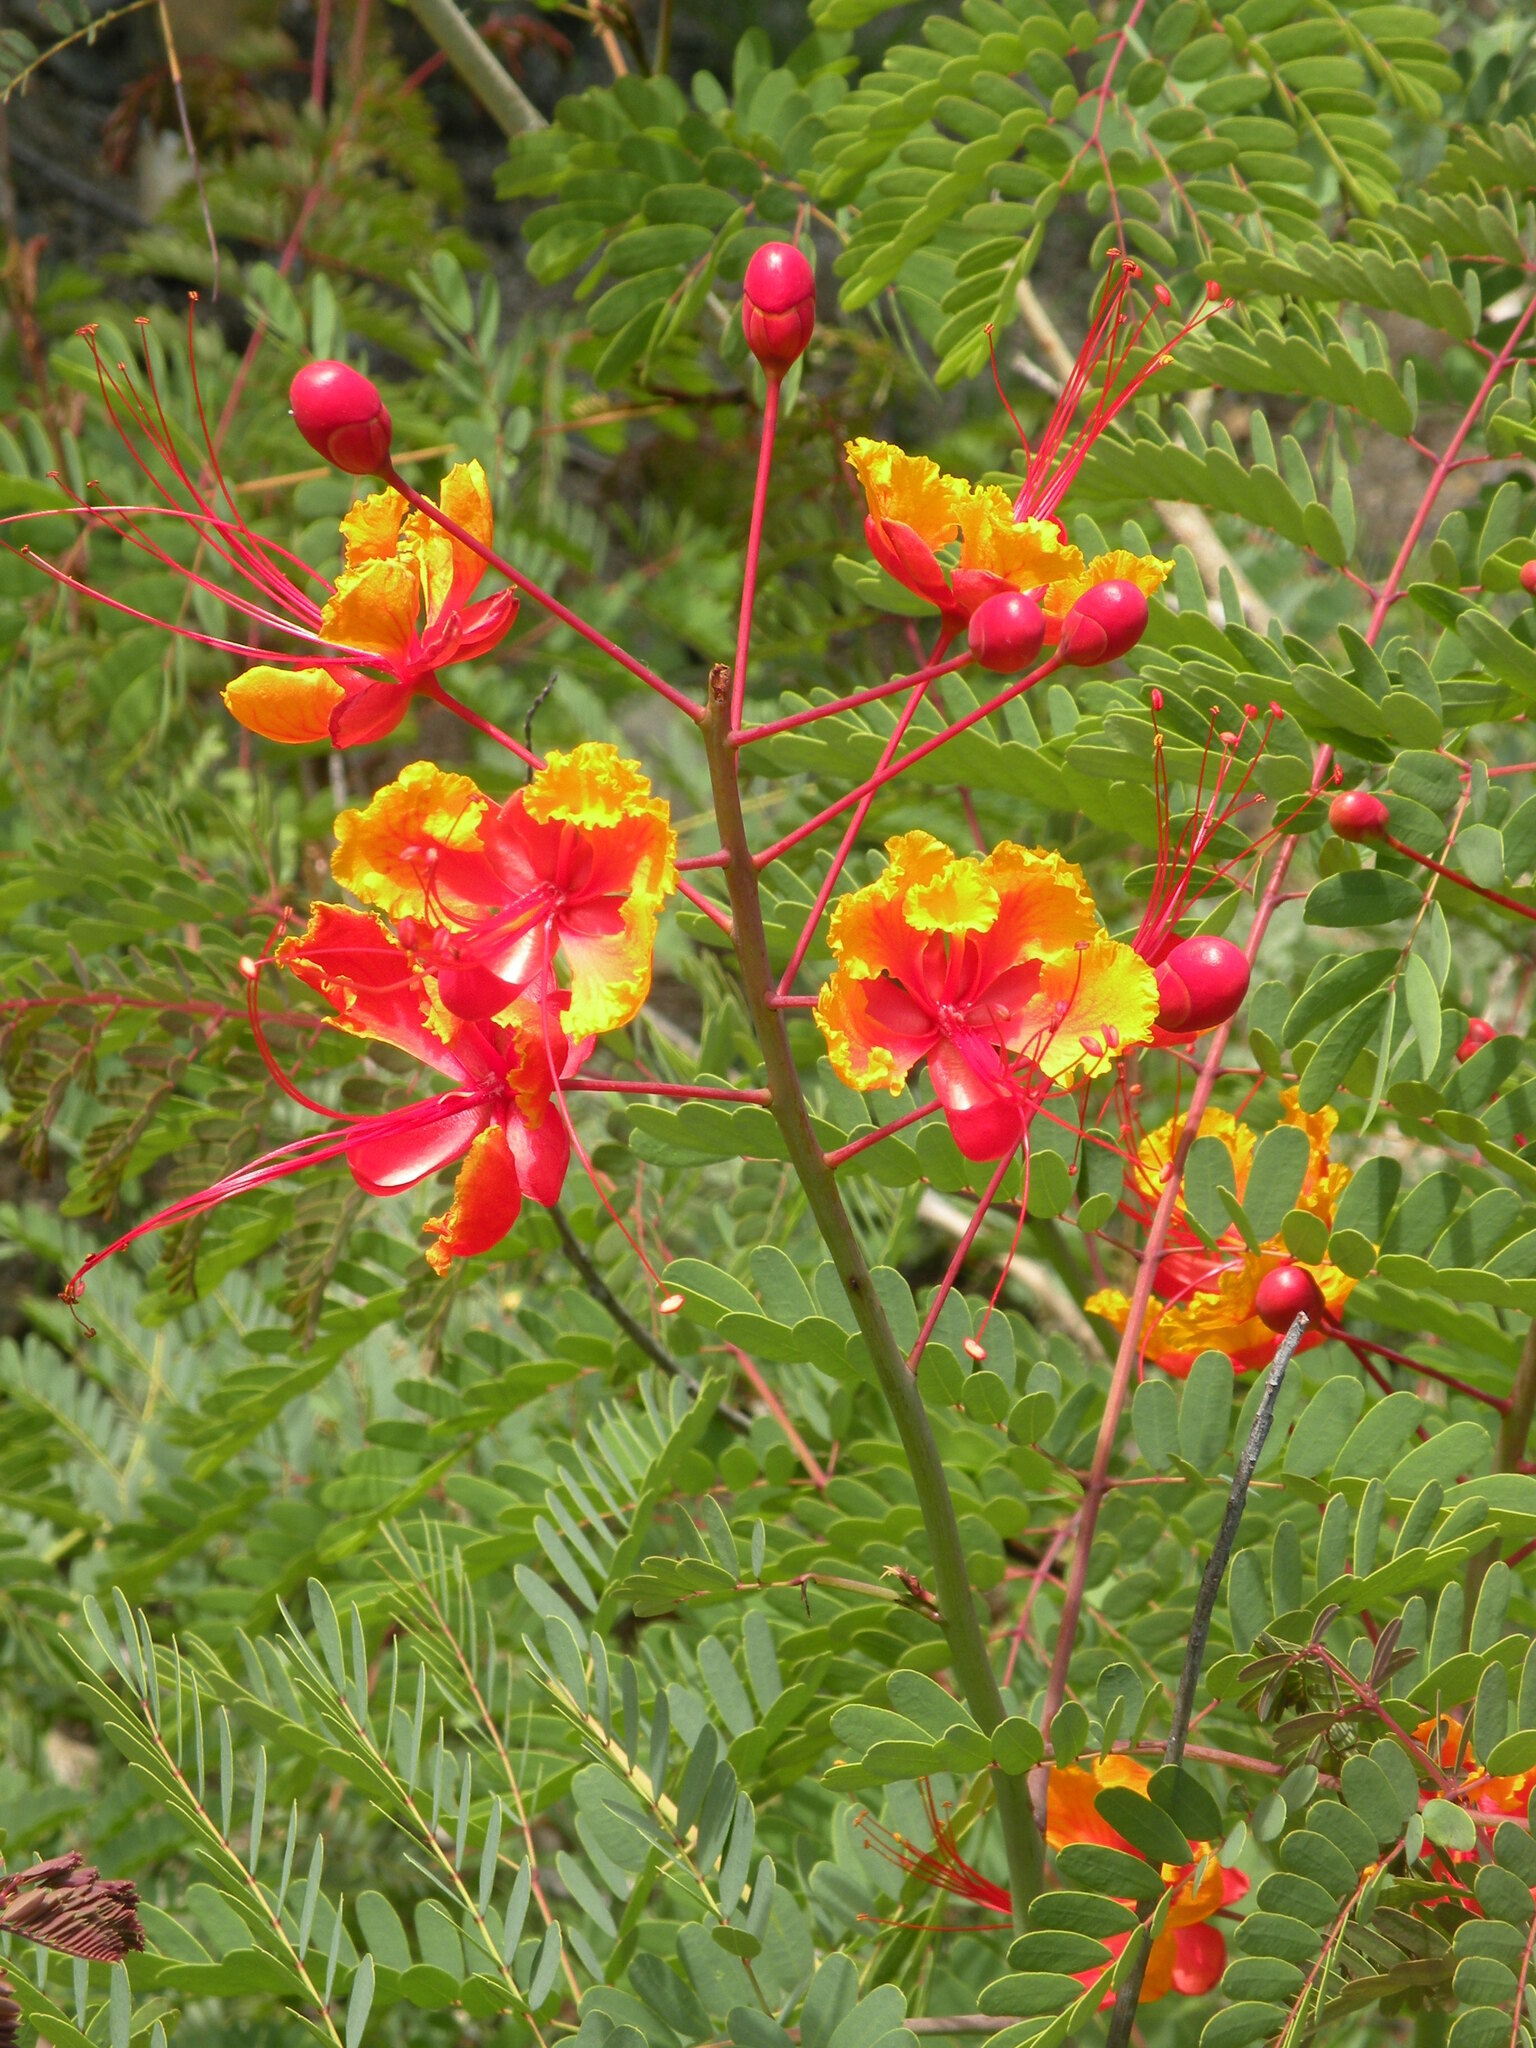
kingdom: Plantae
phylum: Tracheophyta
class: Magnoliopsida
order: Fabales
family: Fabaceae
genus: Caesalpinia
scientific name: Caesalpinia pulcherrima
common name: Pride-of-barbados
